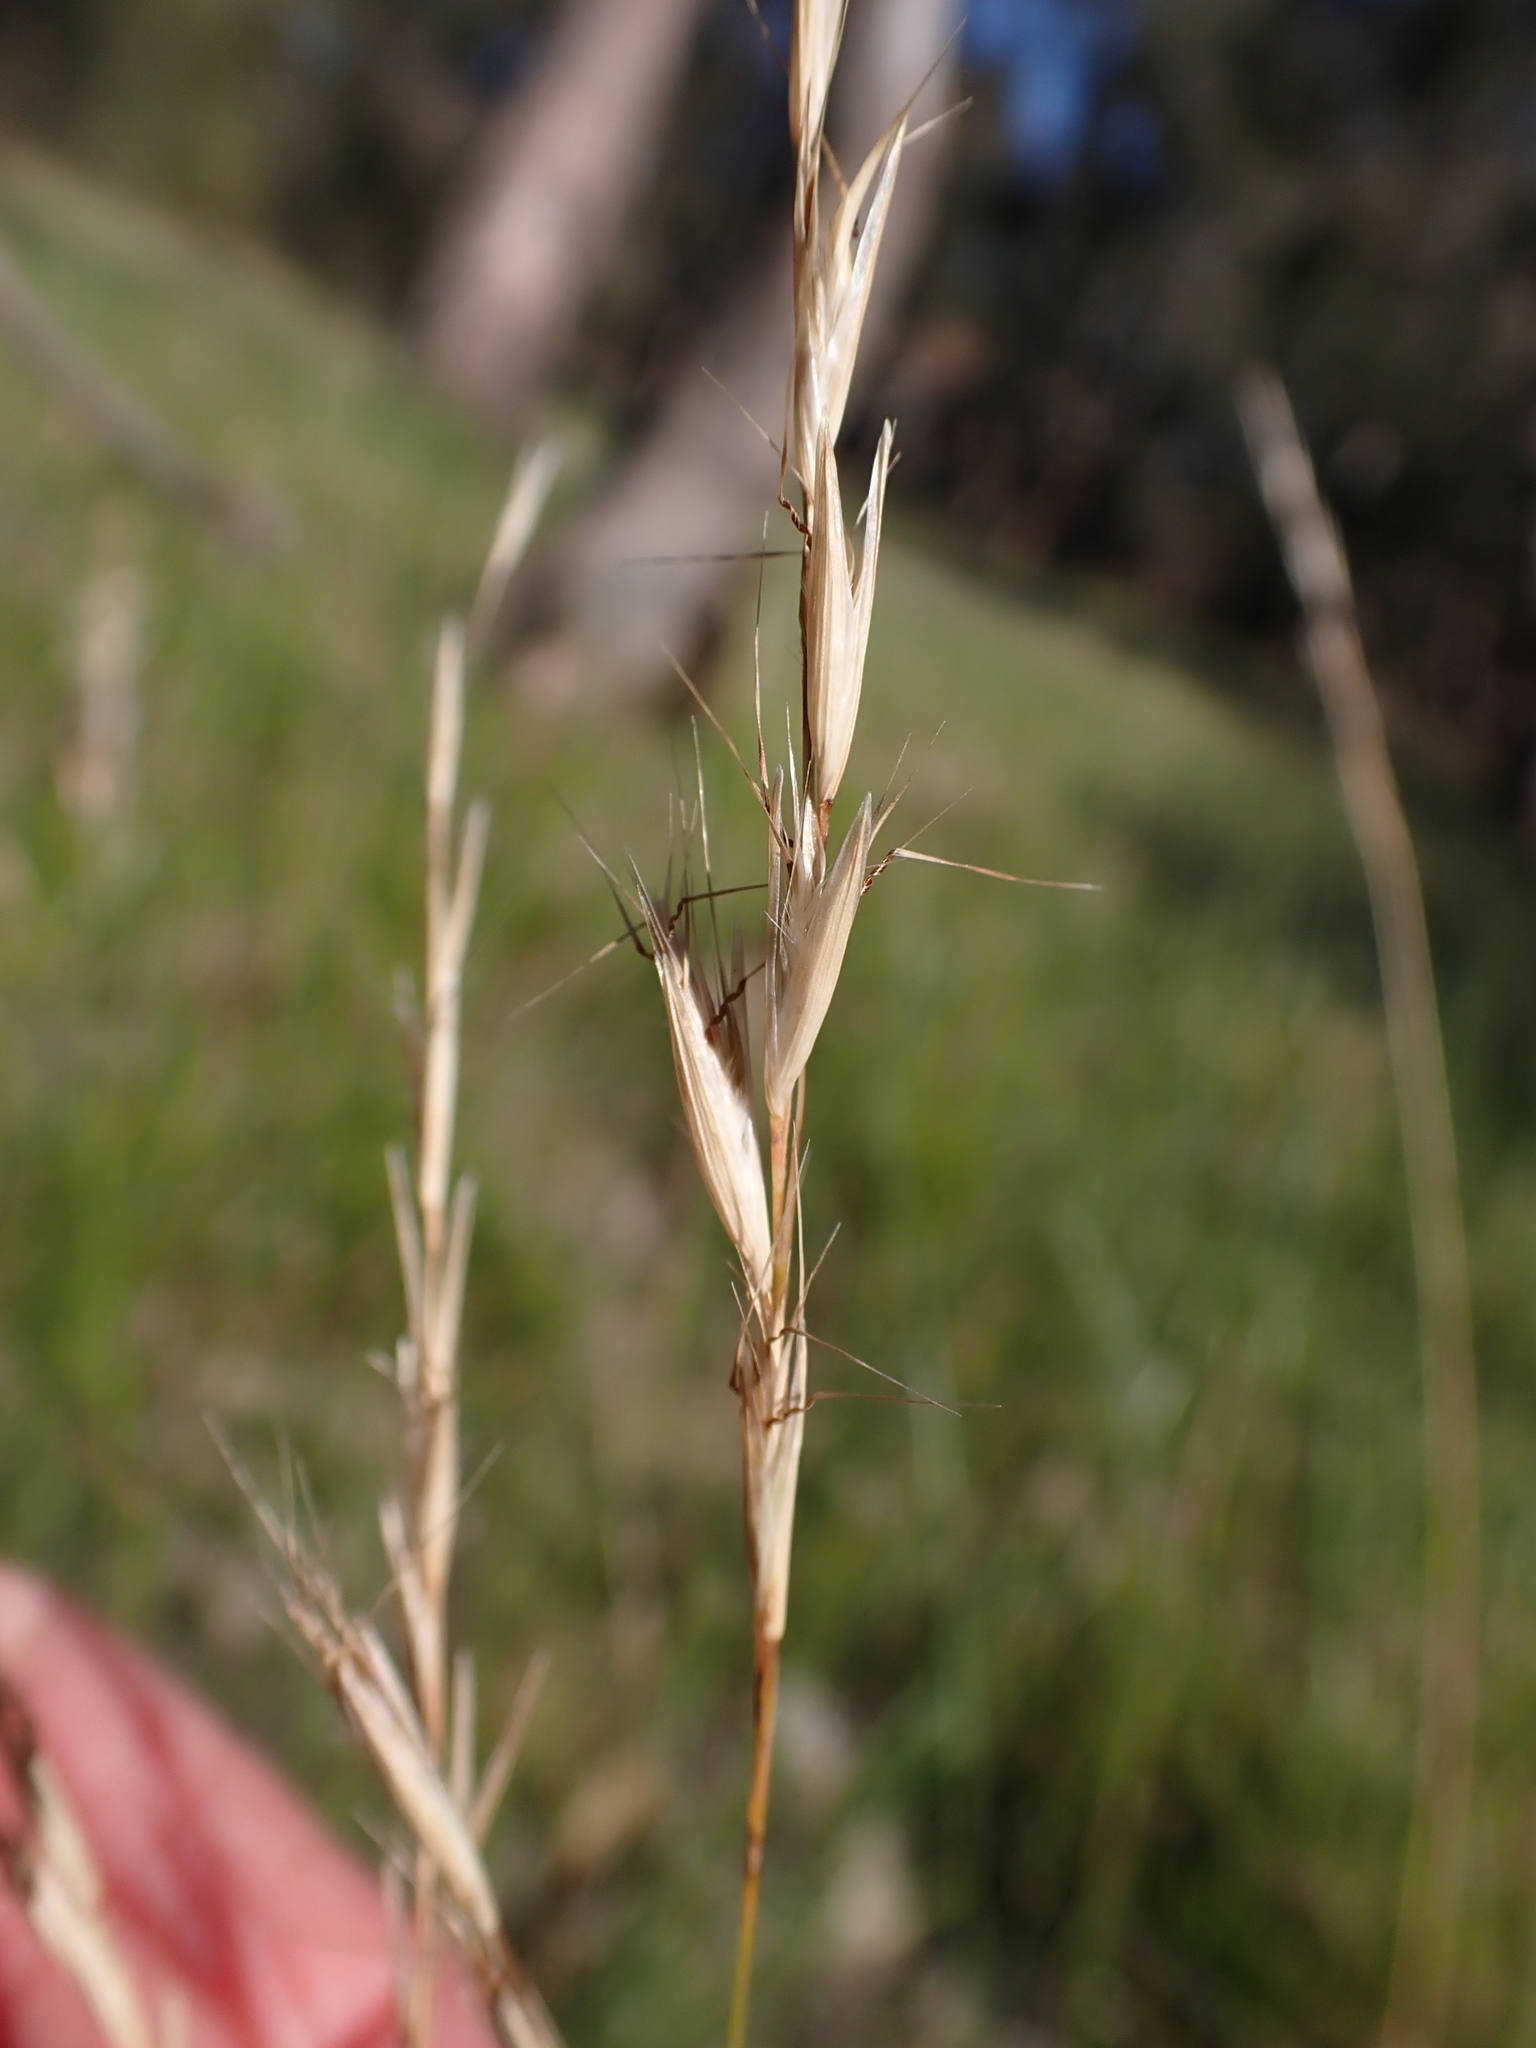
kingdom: Plantae
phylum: Tracheophyta
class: Liliopsida
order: Poales
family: Poaceae
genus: Rytidosperma
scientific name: Rytidosperma racemosum
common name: Wallaby-grass
